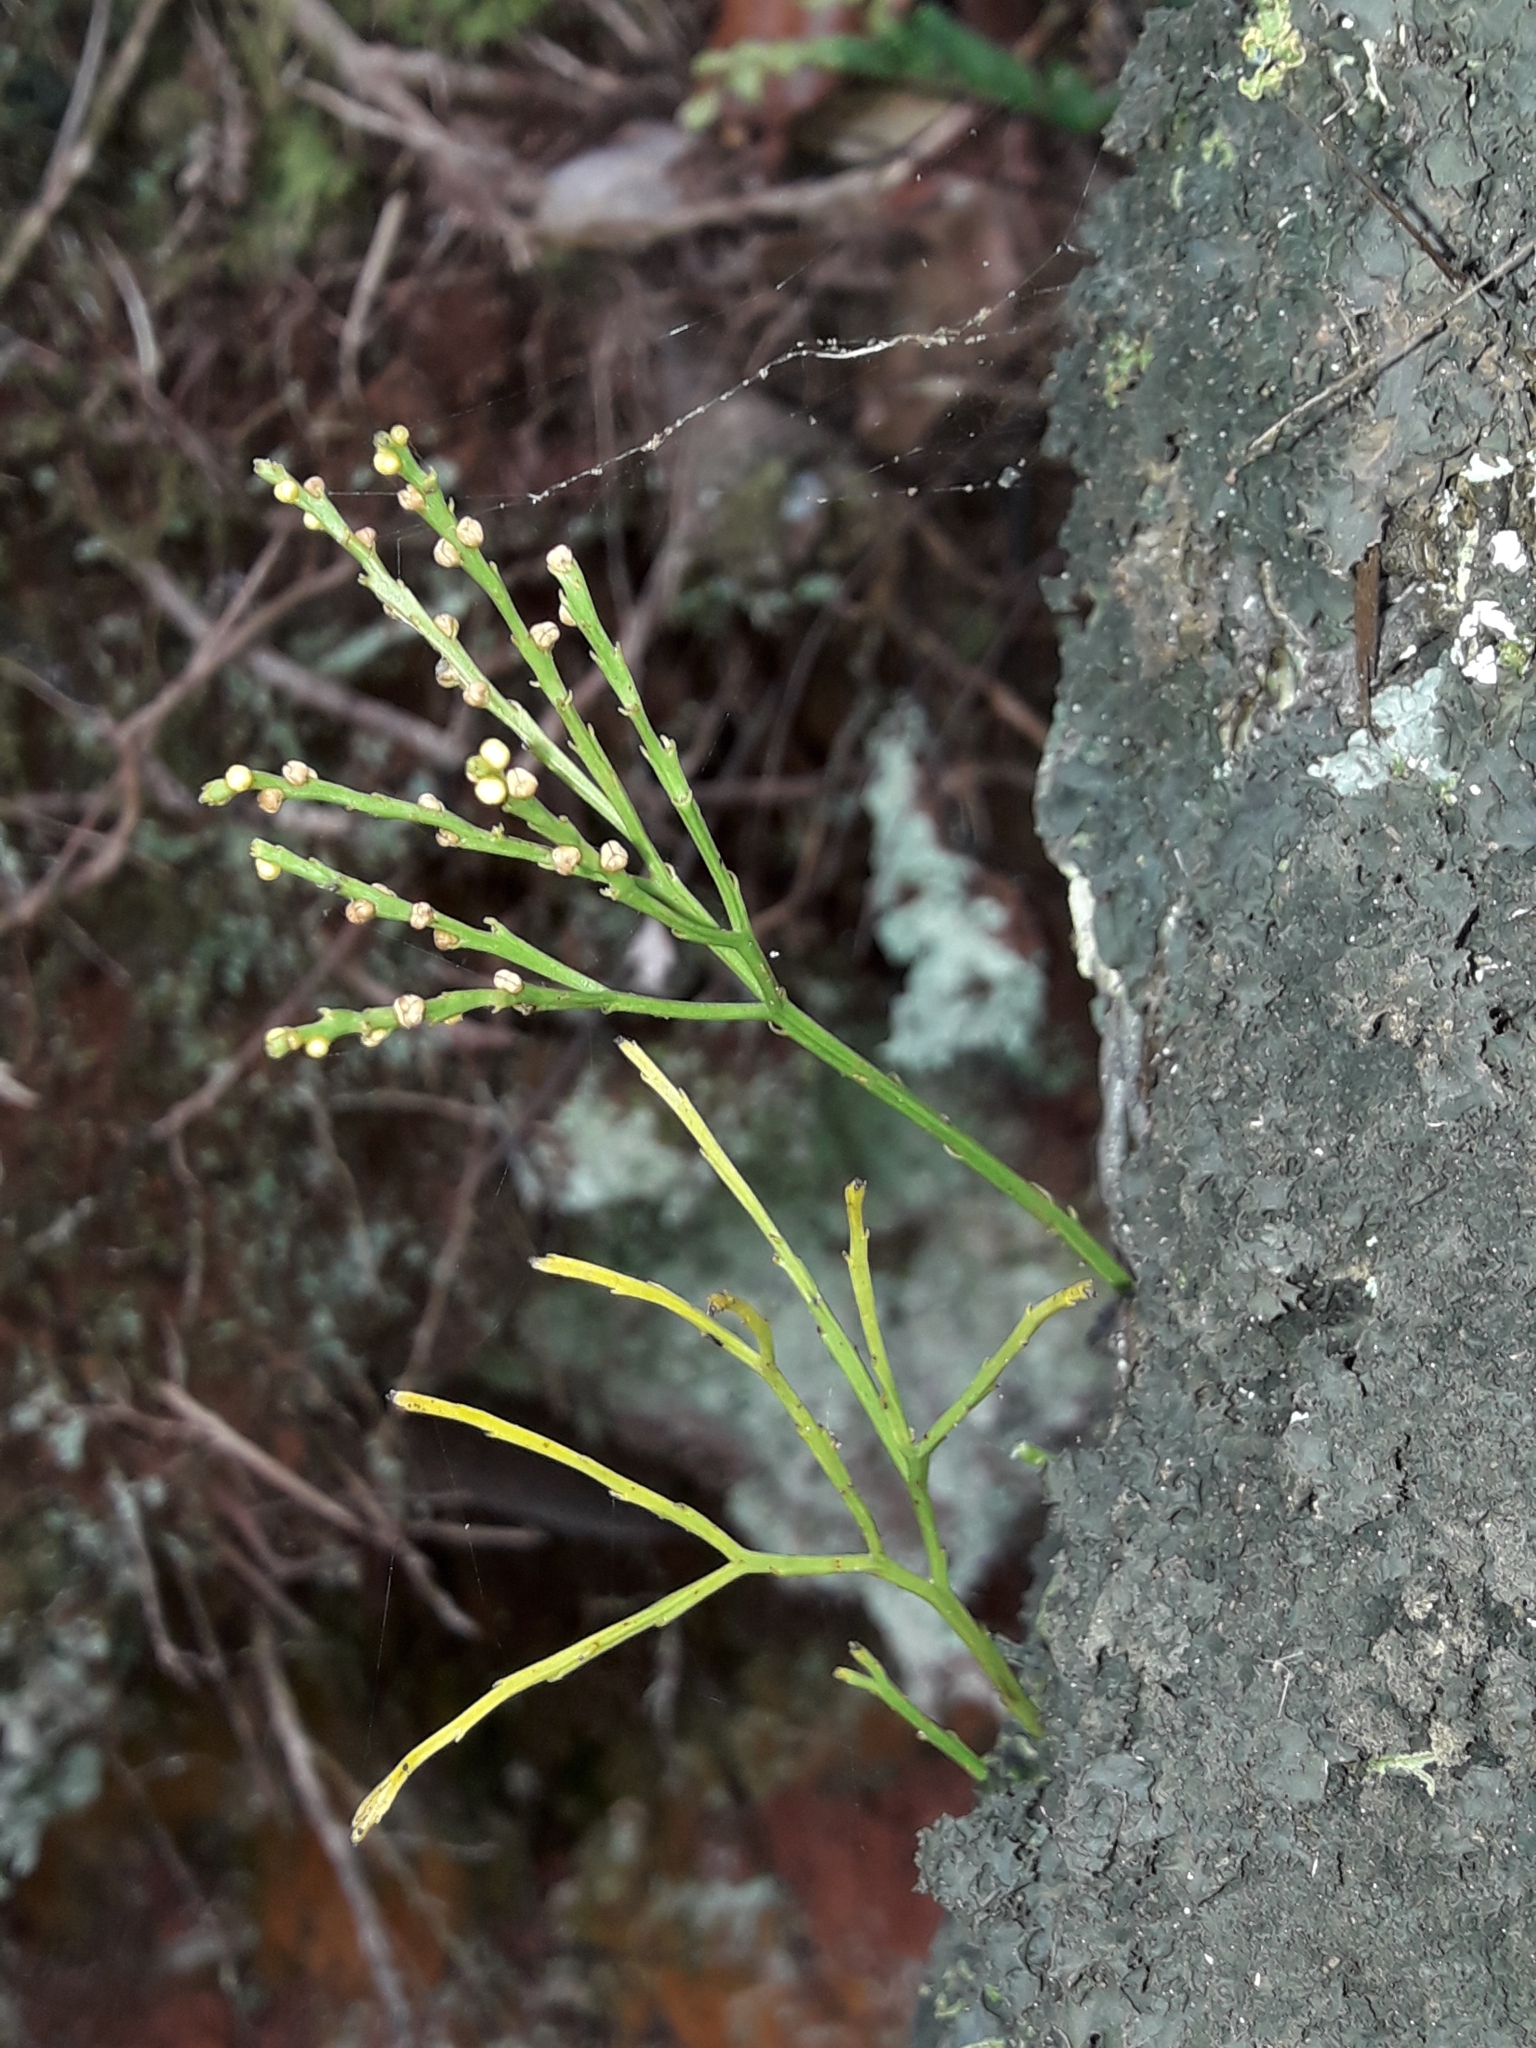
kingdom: Plantae
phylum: Tracheophyta
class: Polypodiopsida
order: Psilotales
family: Psilotaceae
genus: Psilotum
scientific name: Psilotum nudum
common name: Skeleton fork fern
